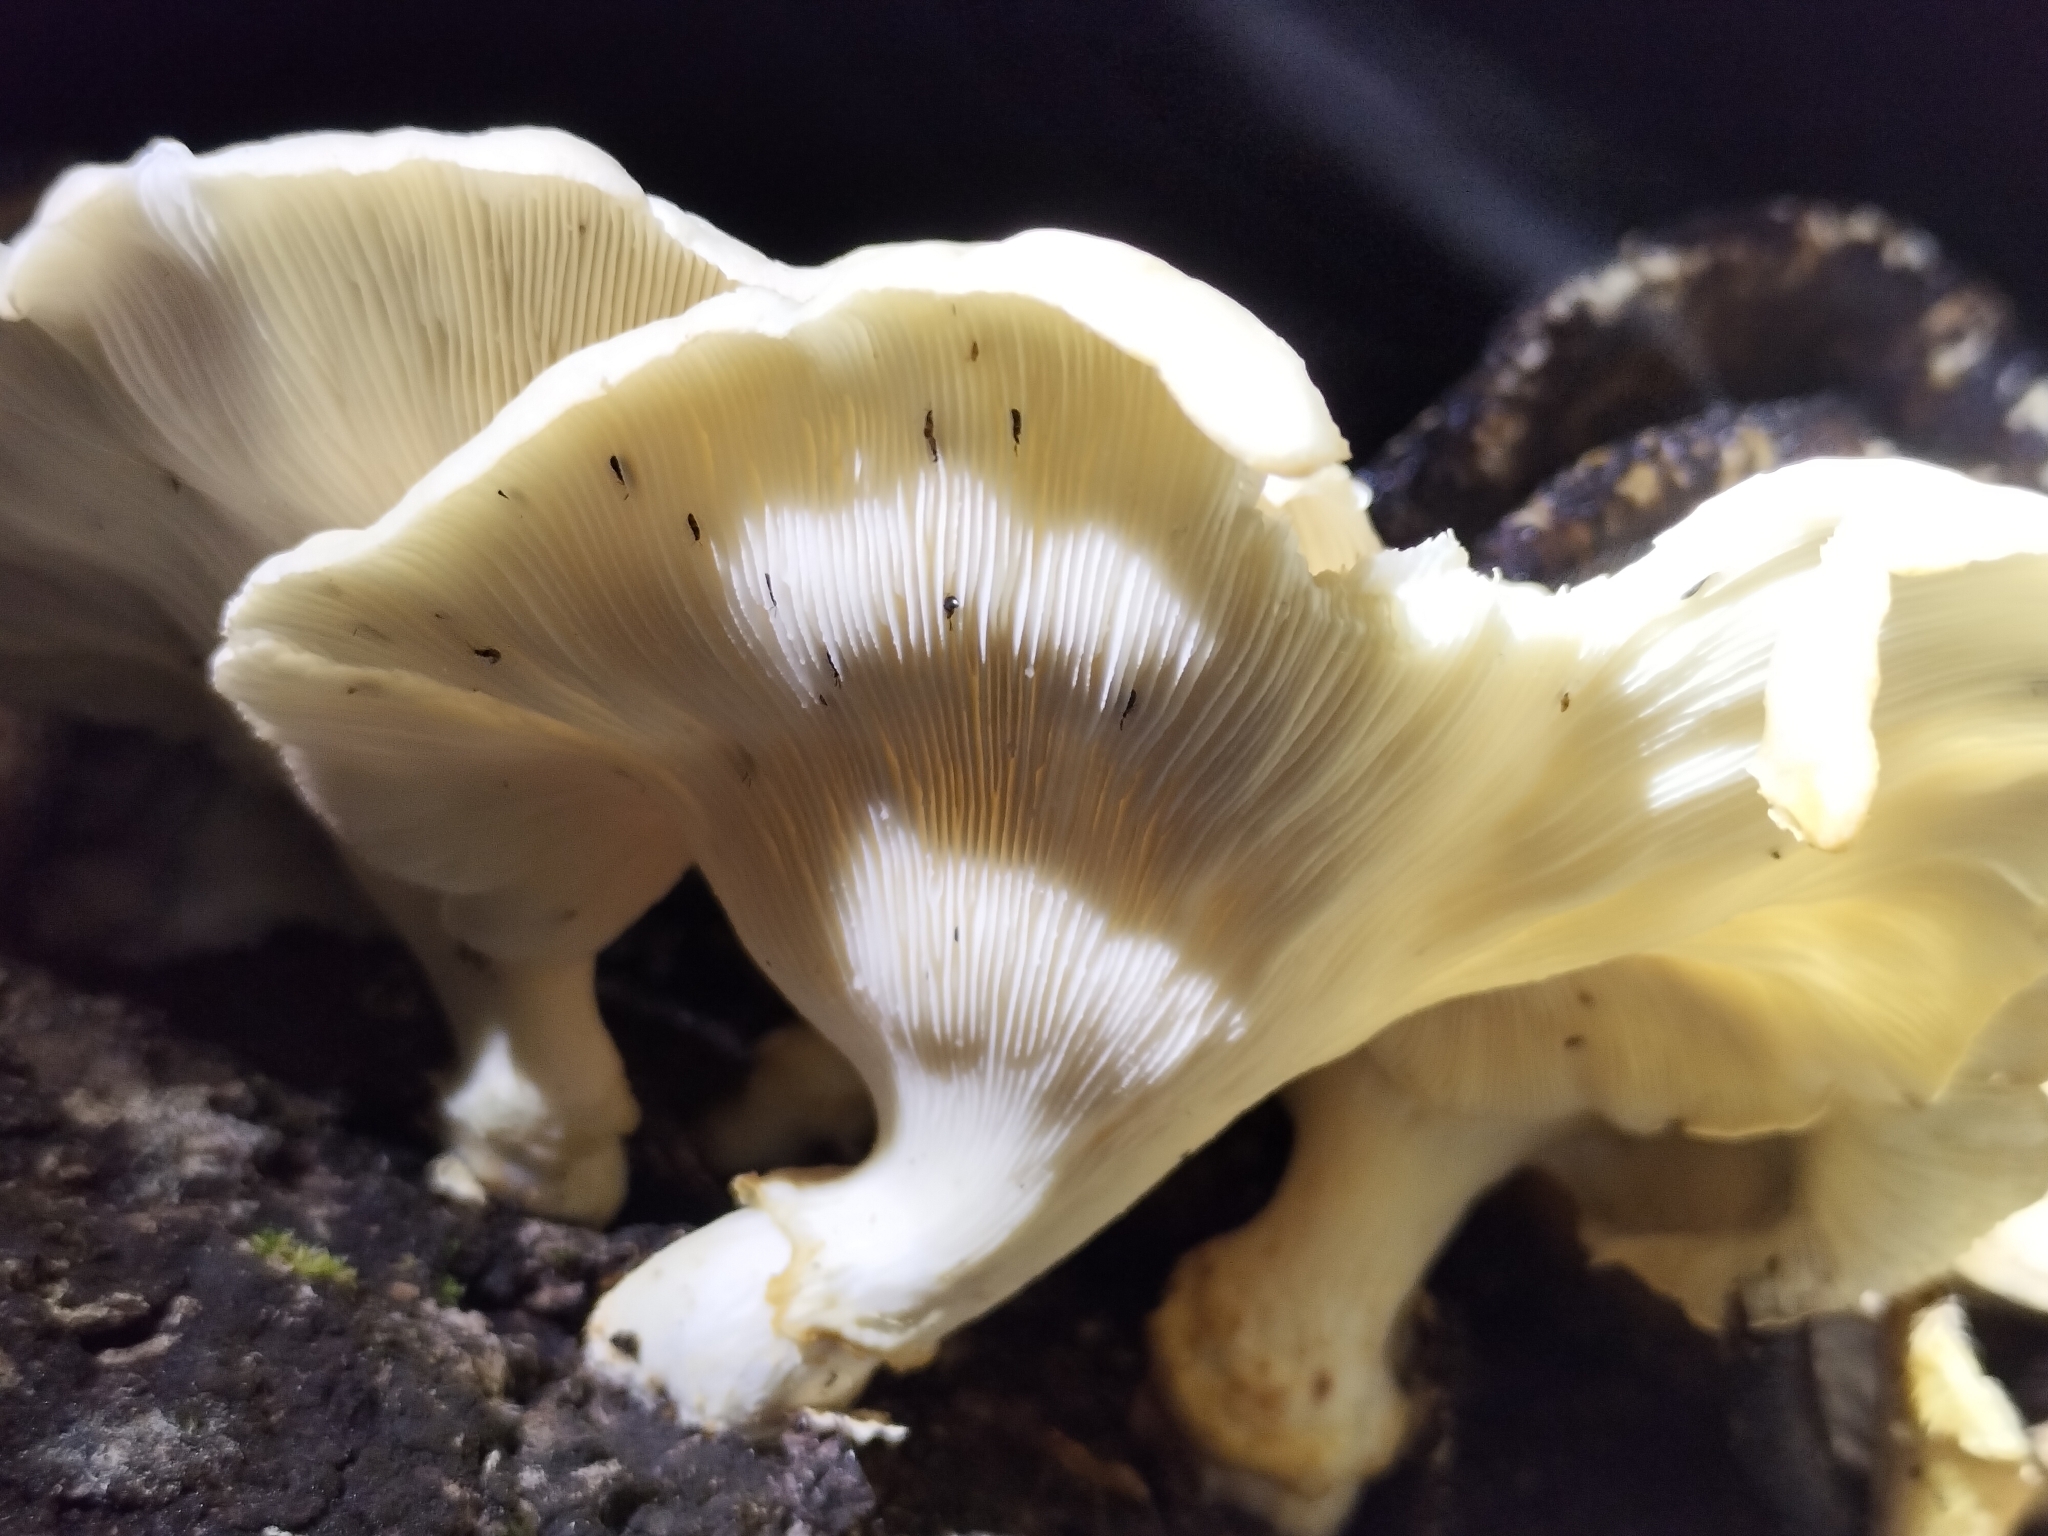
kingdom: Fungi
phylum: Basidiomycota
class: Agaricomycetes
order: Polyporales
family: Polyporaceae
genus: Lentinus
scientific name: Lentinus sajor-caju
